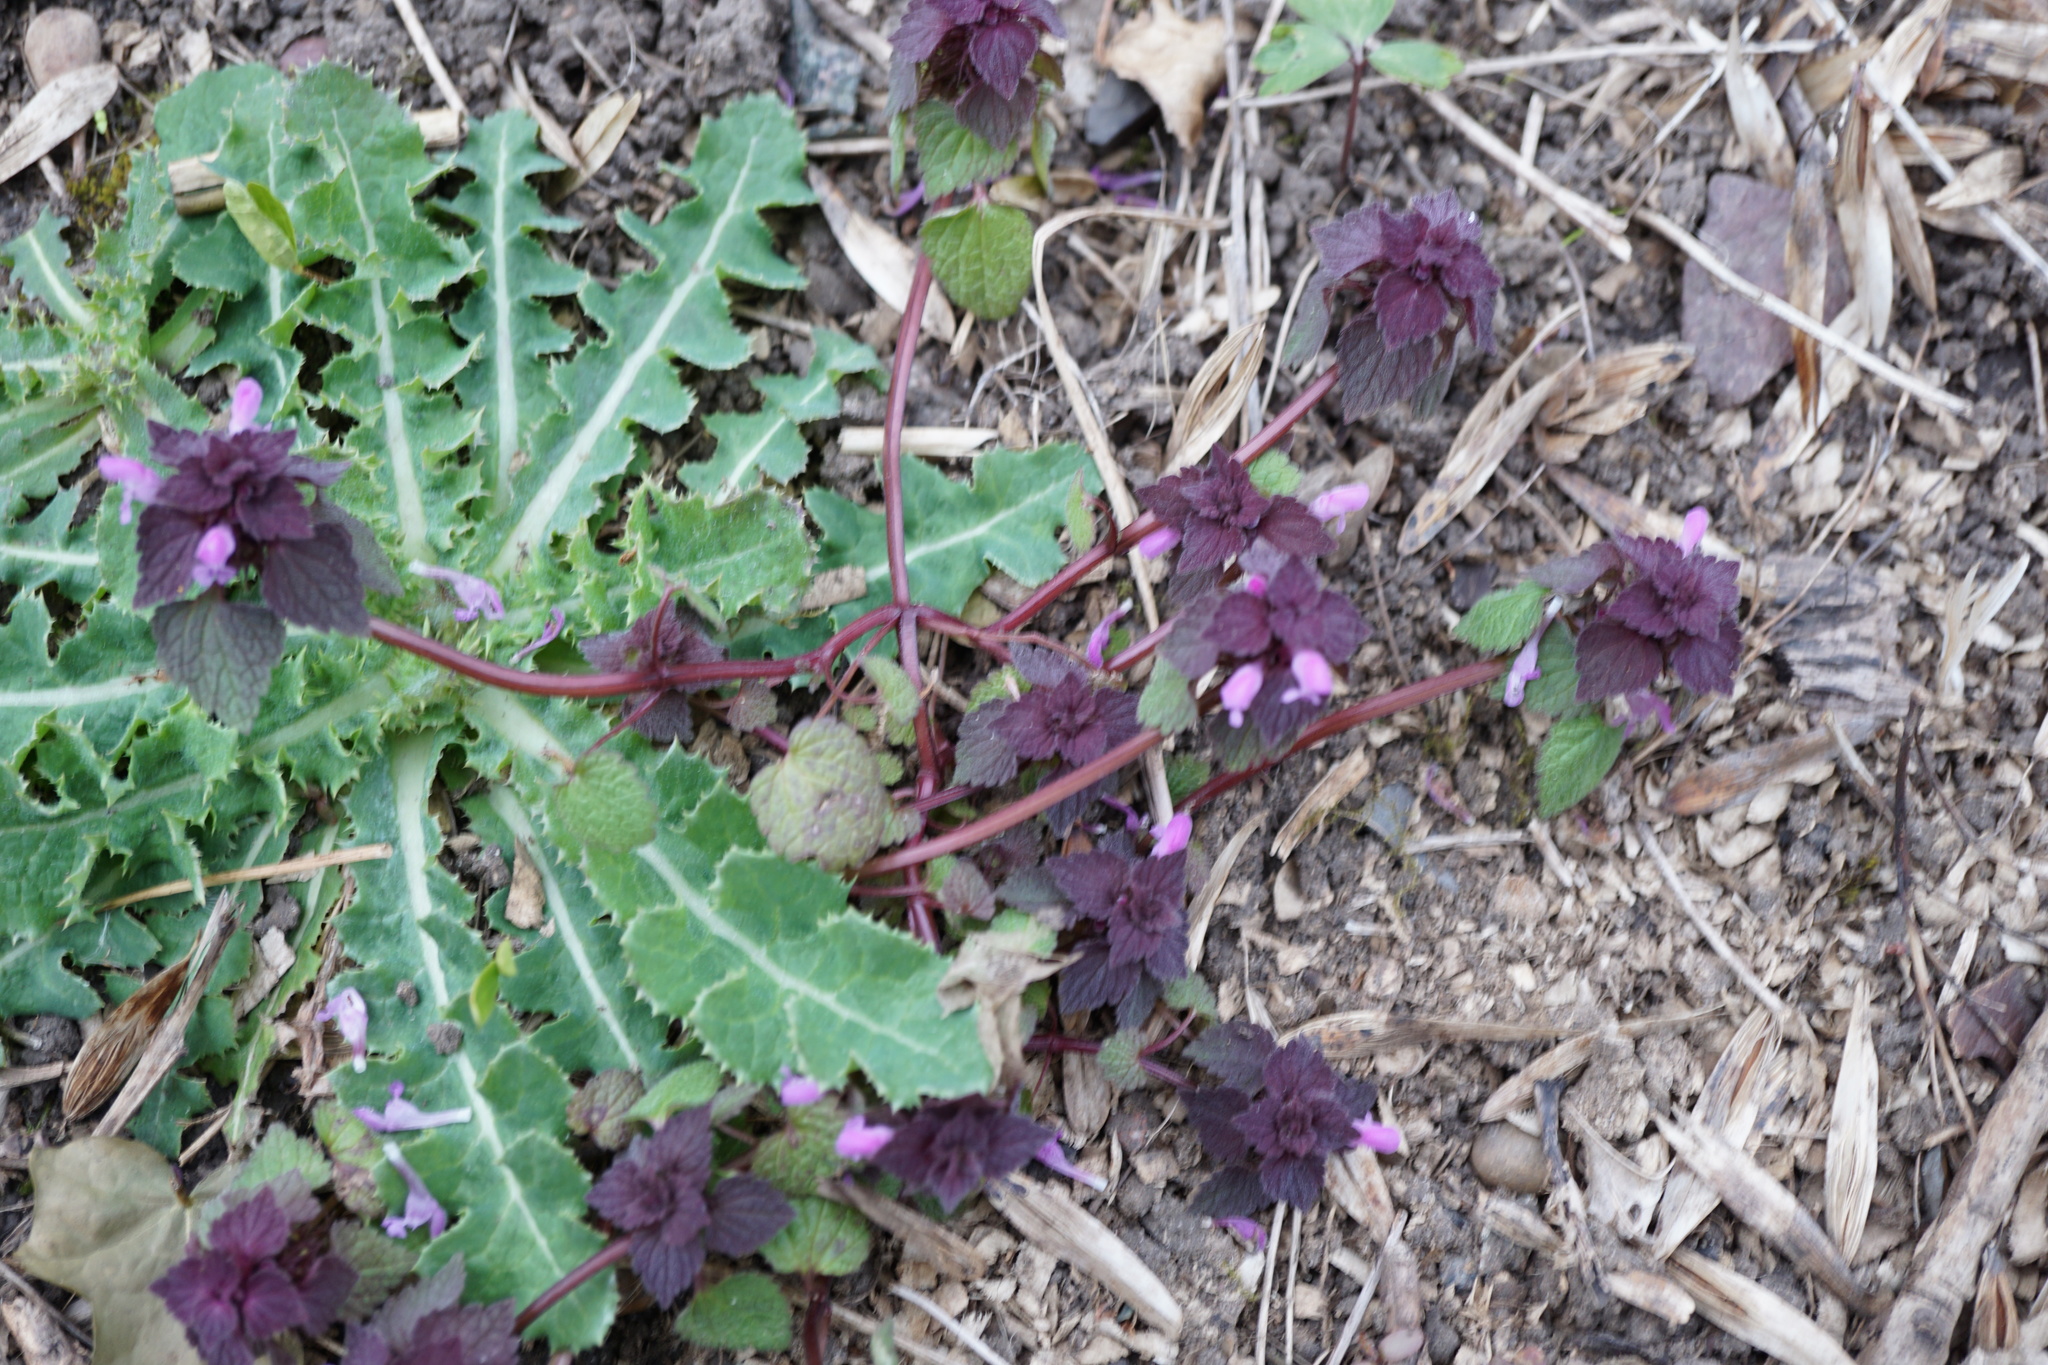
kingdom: Plantae
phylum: Tracheophyta
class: Magnoliopsida
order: Lamiales
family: Lamiaceae
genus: Lamium
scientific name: Lamium purpureum
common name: Red dead-nettle
